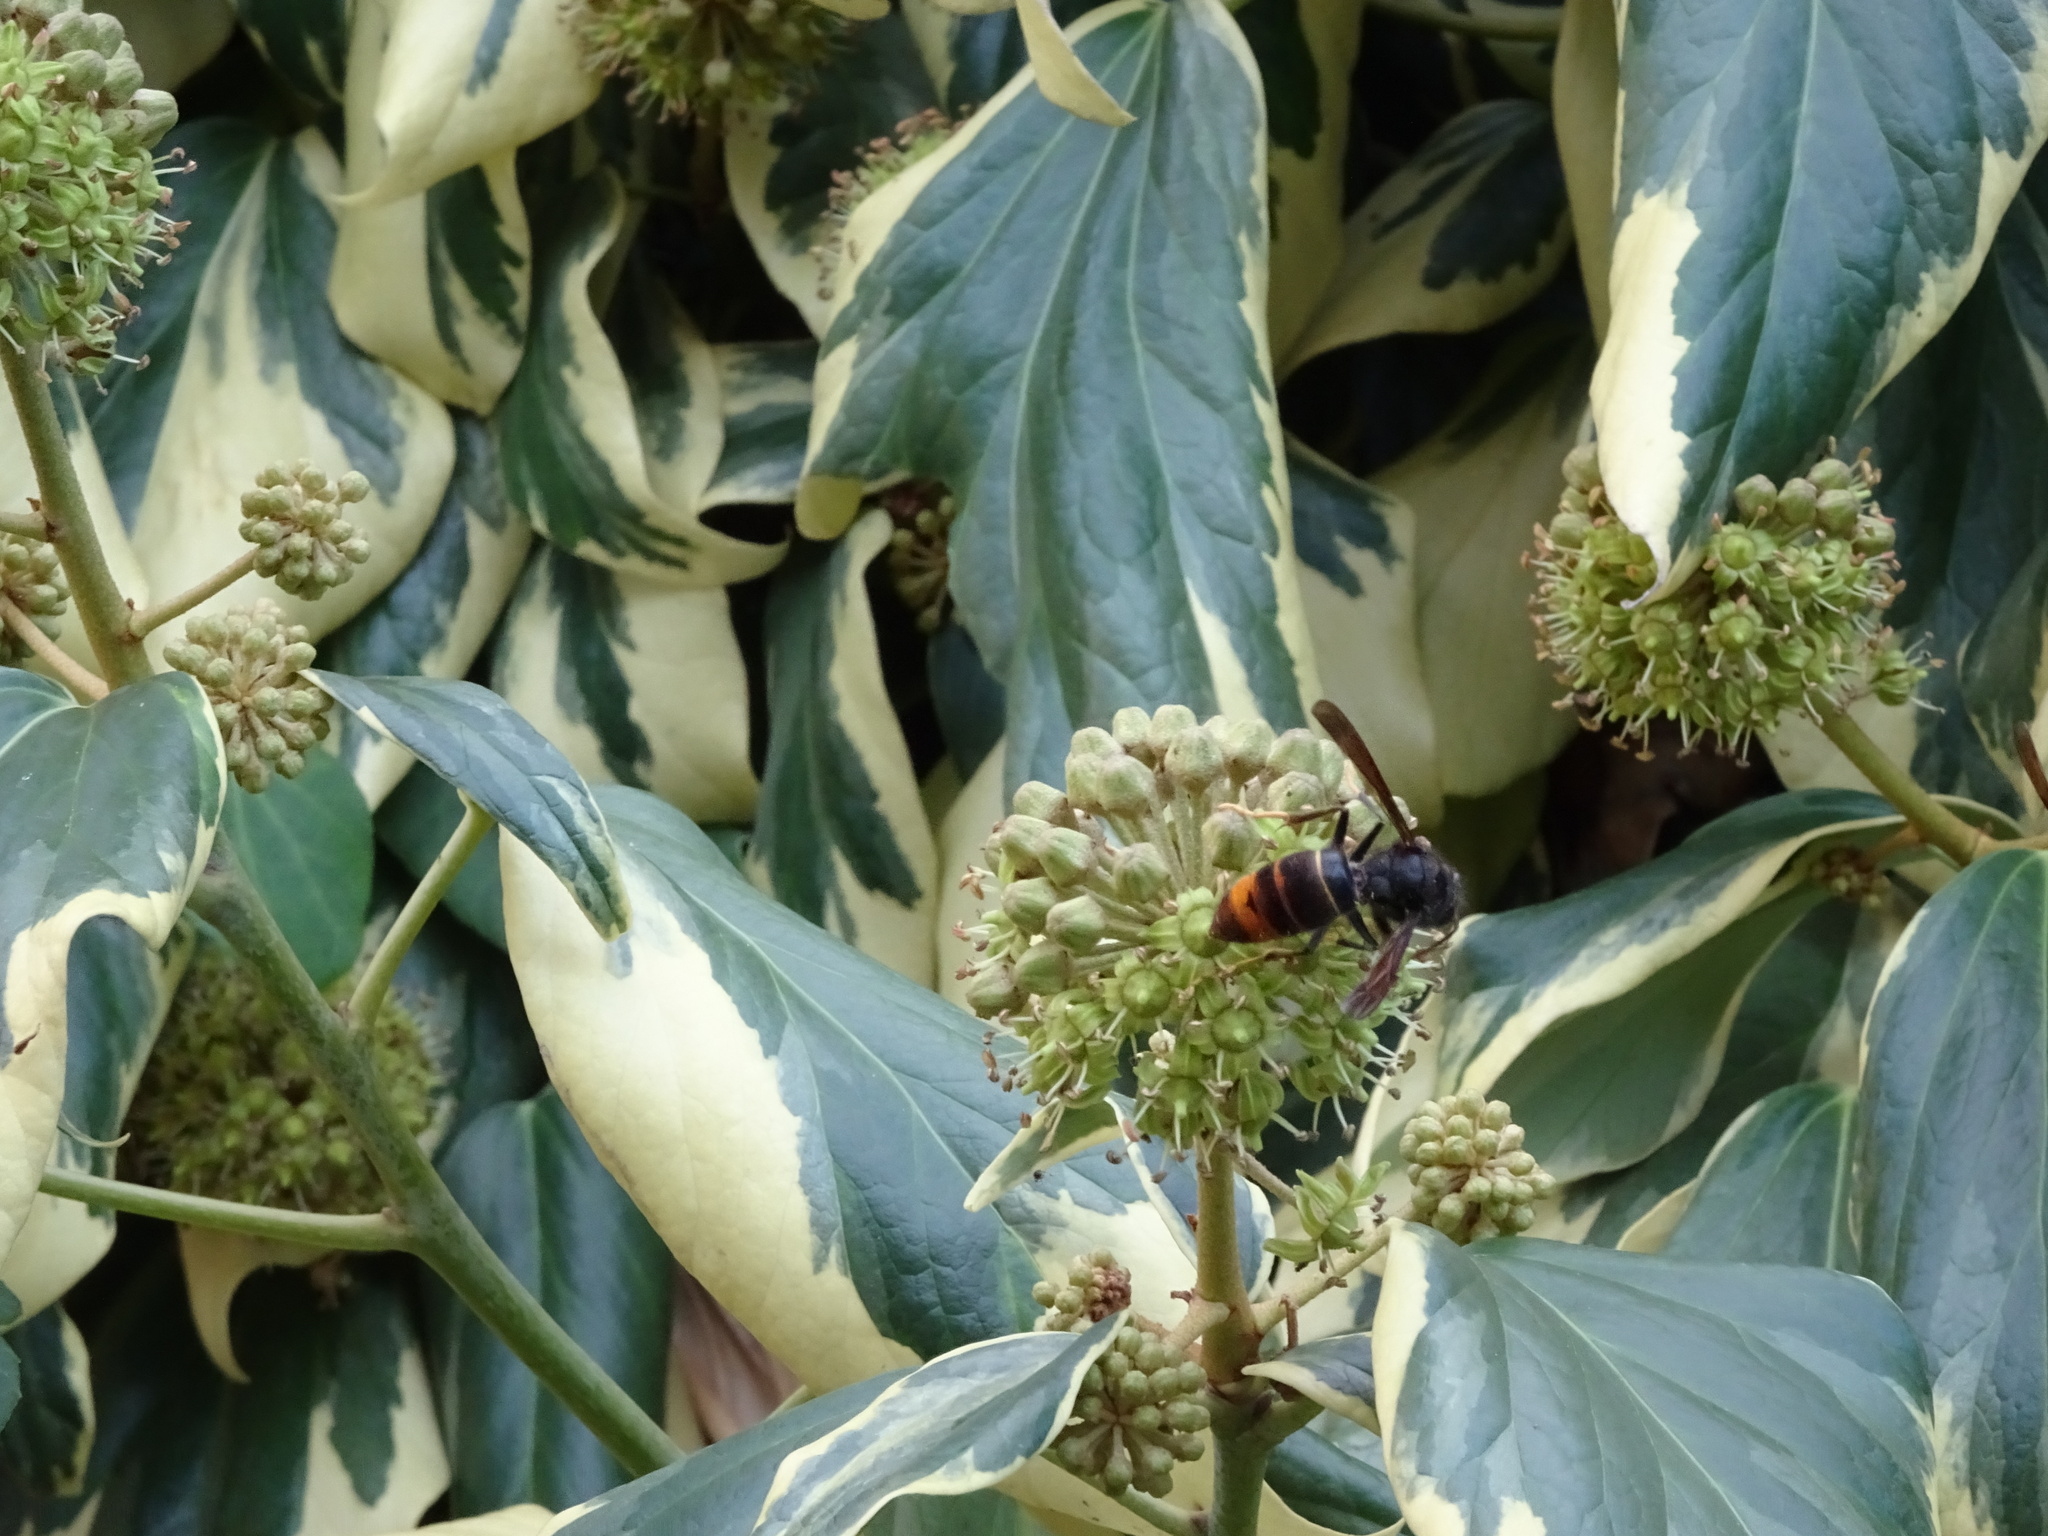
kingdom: Animalia
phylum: Arthropoda
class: Insecta
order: Hymenoptera
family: Vespidae
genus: Vespa
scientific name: Vespa velutina
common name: Asian hornet
